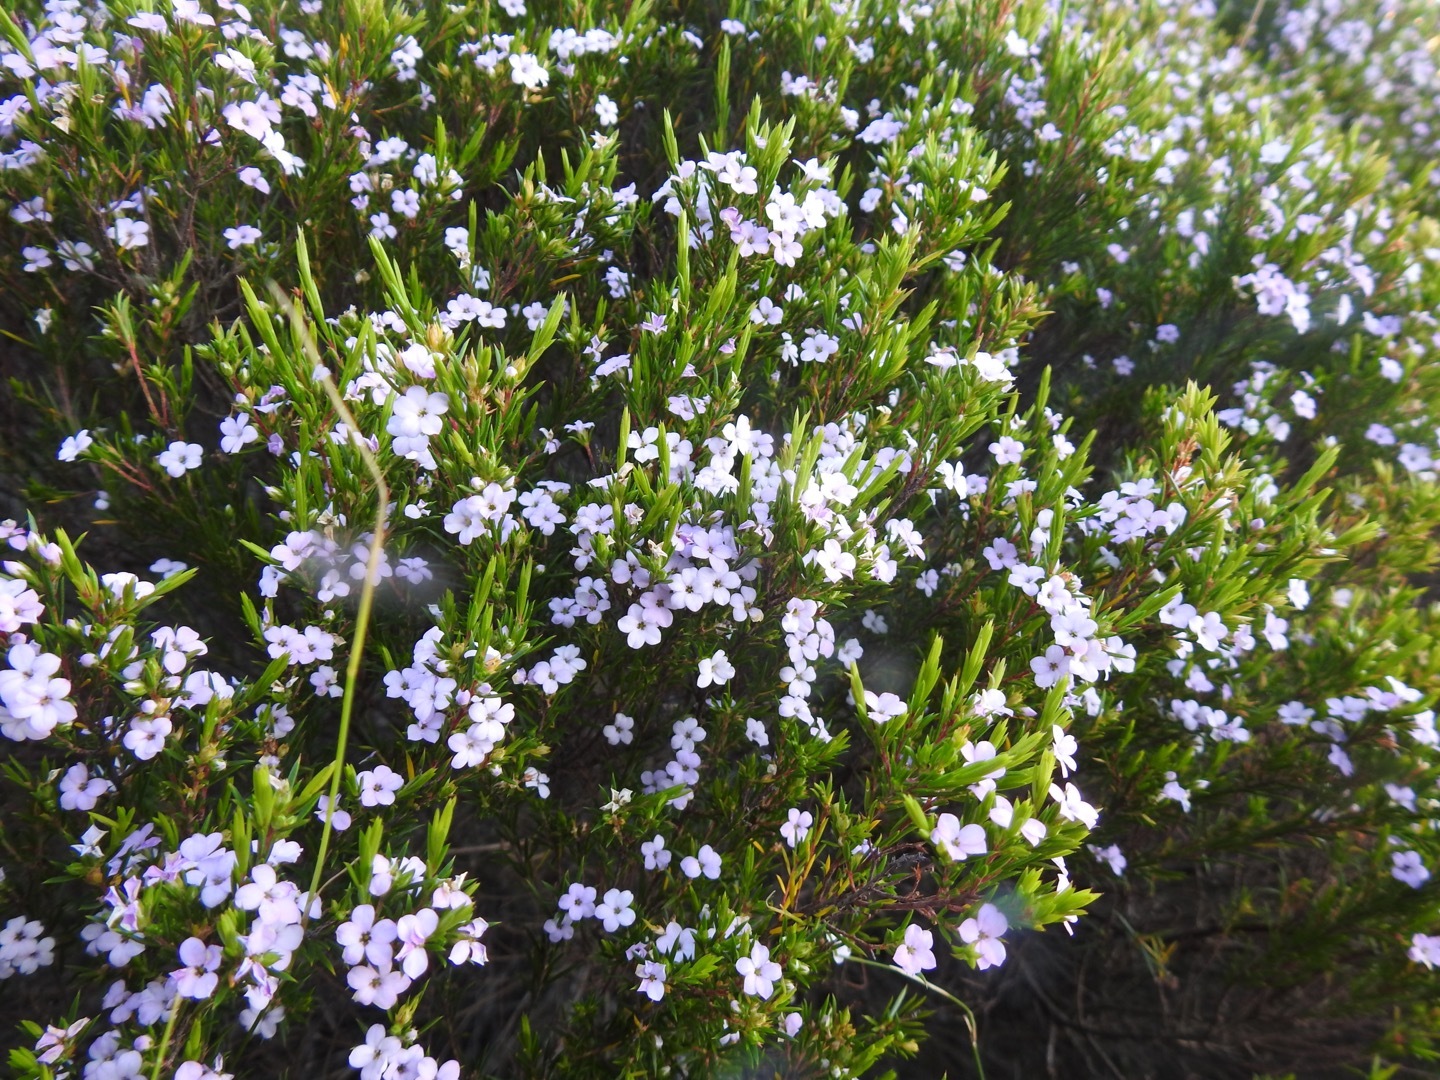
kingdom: Plantae
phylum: Tracheophyta
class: Magnoliopsida
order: Sapindales
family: Rutaceae
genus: Coleonema
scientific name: Coleonema pulchellum
